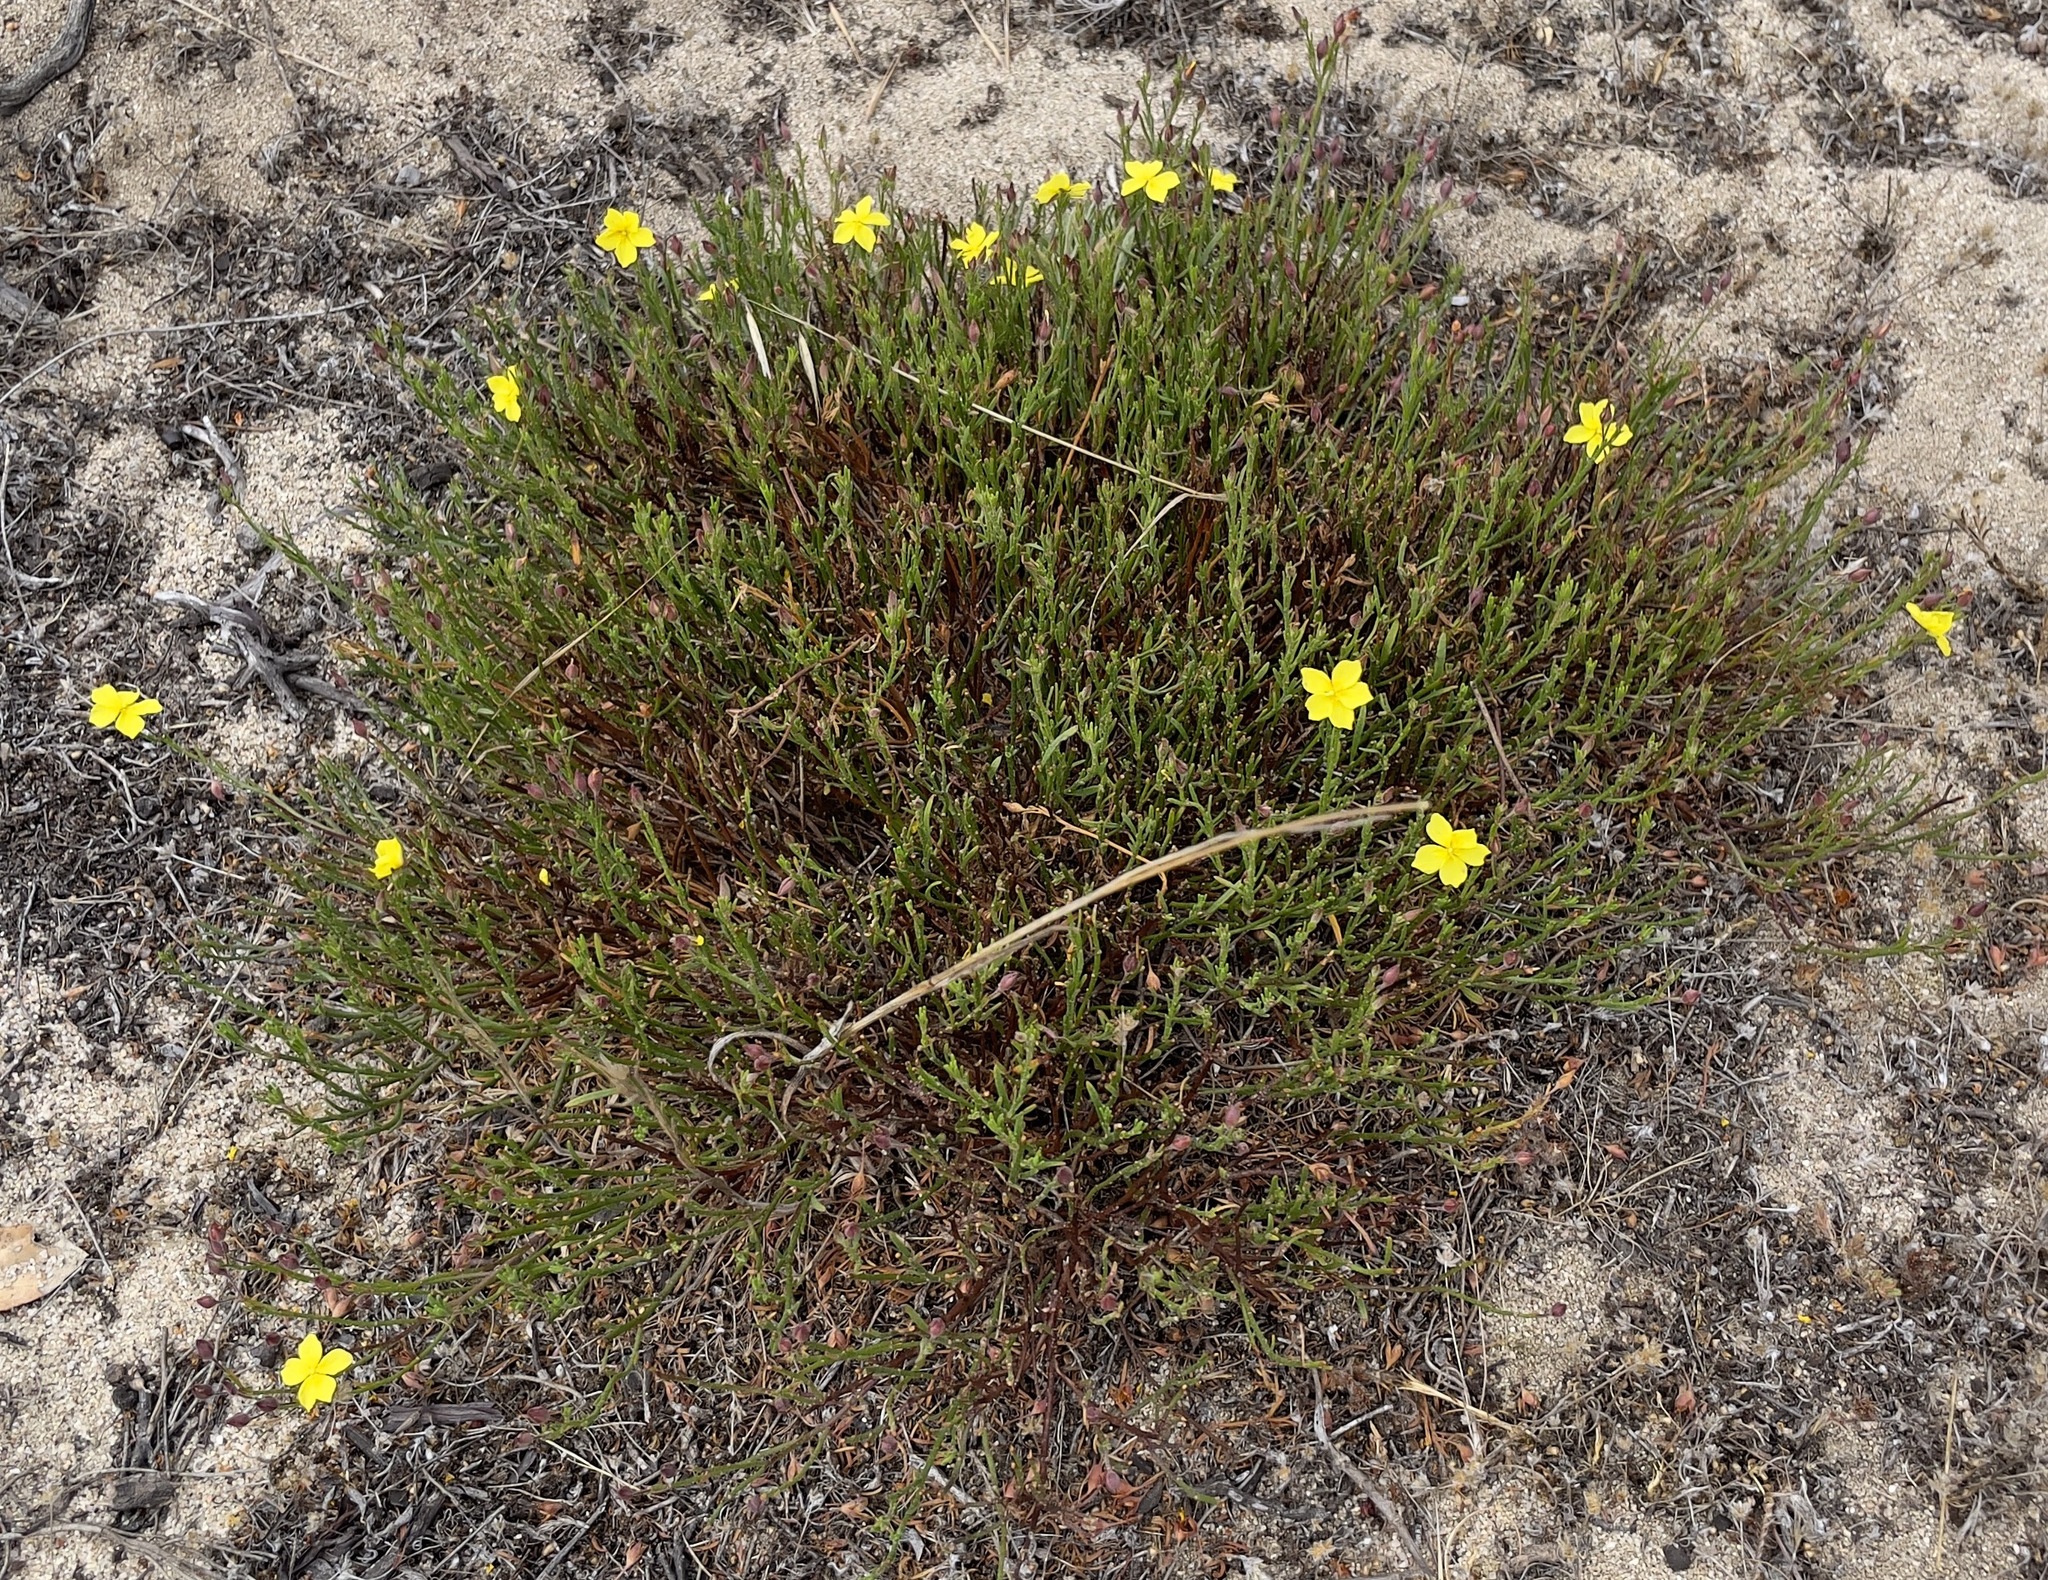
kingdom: Plantae
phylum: Tracheophyta
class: Magnoliopsida
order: Malvales
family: Cistaceae
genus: Crocanthemum
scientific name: Crocanthemum scoparium
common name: Broom-rose
